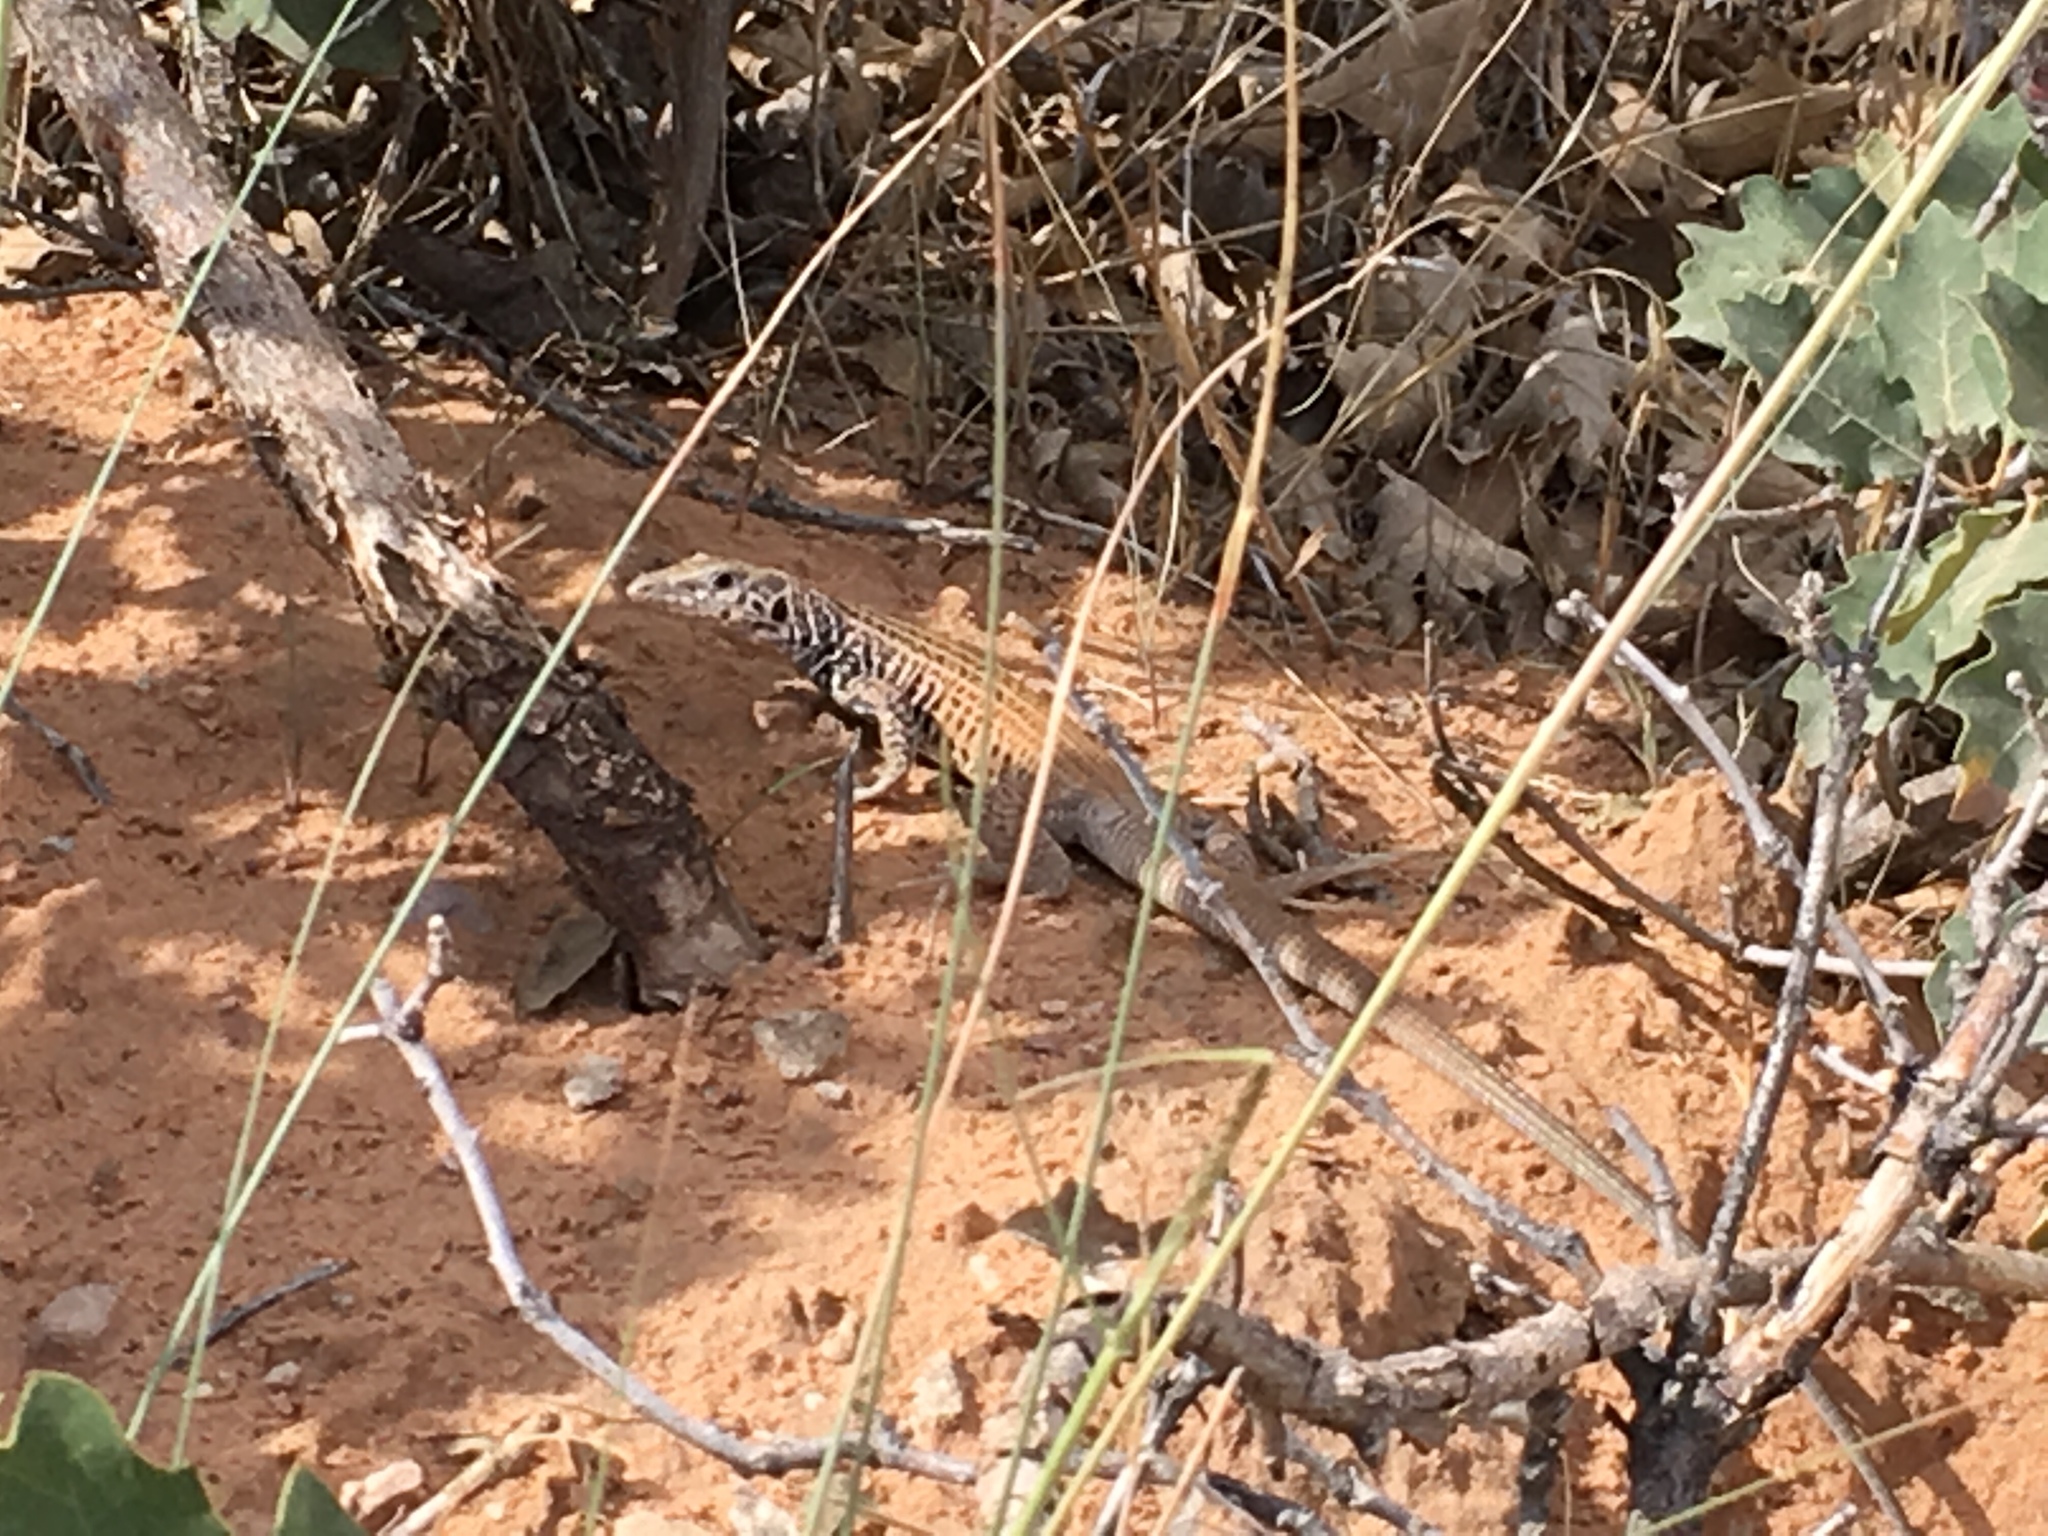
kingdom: Animalia
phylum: Chordata
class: Squamata
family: Teiidae
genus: Aspidoscelis
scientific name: Aspidoscelis tigris
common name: Tiger whiptail
